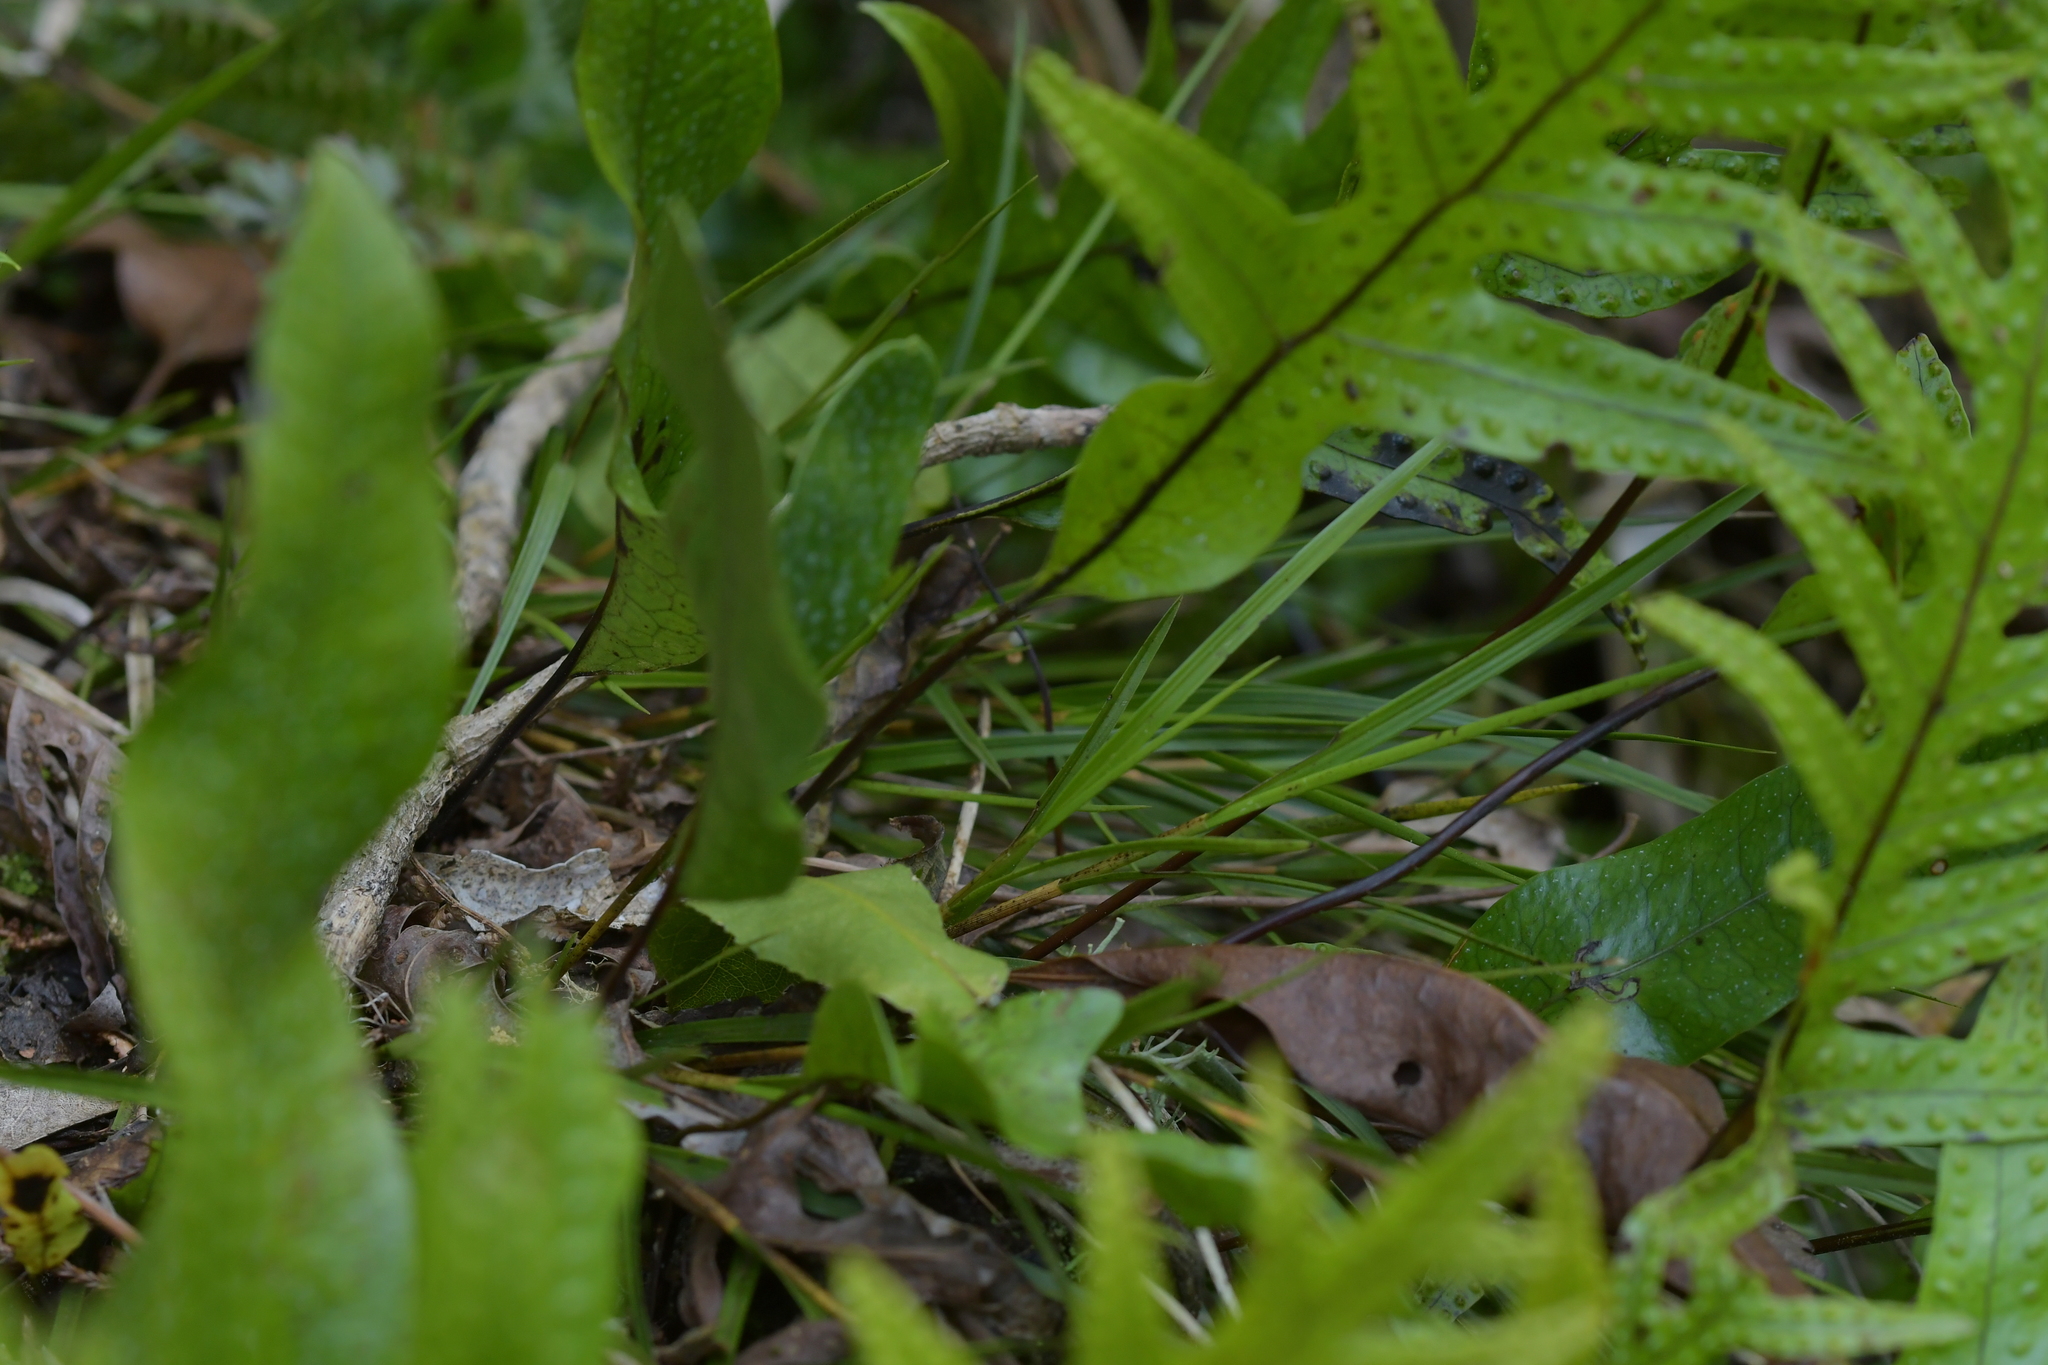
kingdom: Plantae
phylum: Tracheophyta
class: Liliopsida
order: Asparagales
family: Orchidaceae
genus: Earina
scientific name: Earina mucronata
